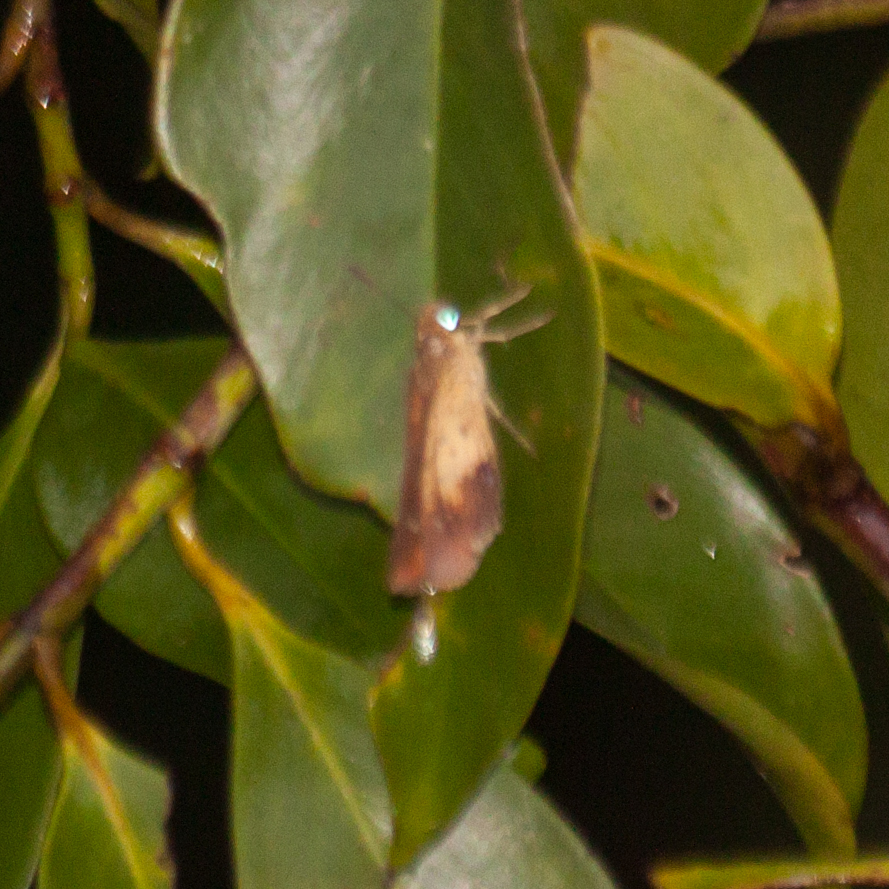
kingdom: Animalia
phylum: Arthropoda
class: Insecta
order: Lepidoptera
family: Hesperiidae
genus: Zographetus
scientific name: Zographetus satwa
